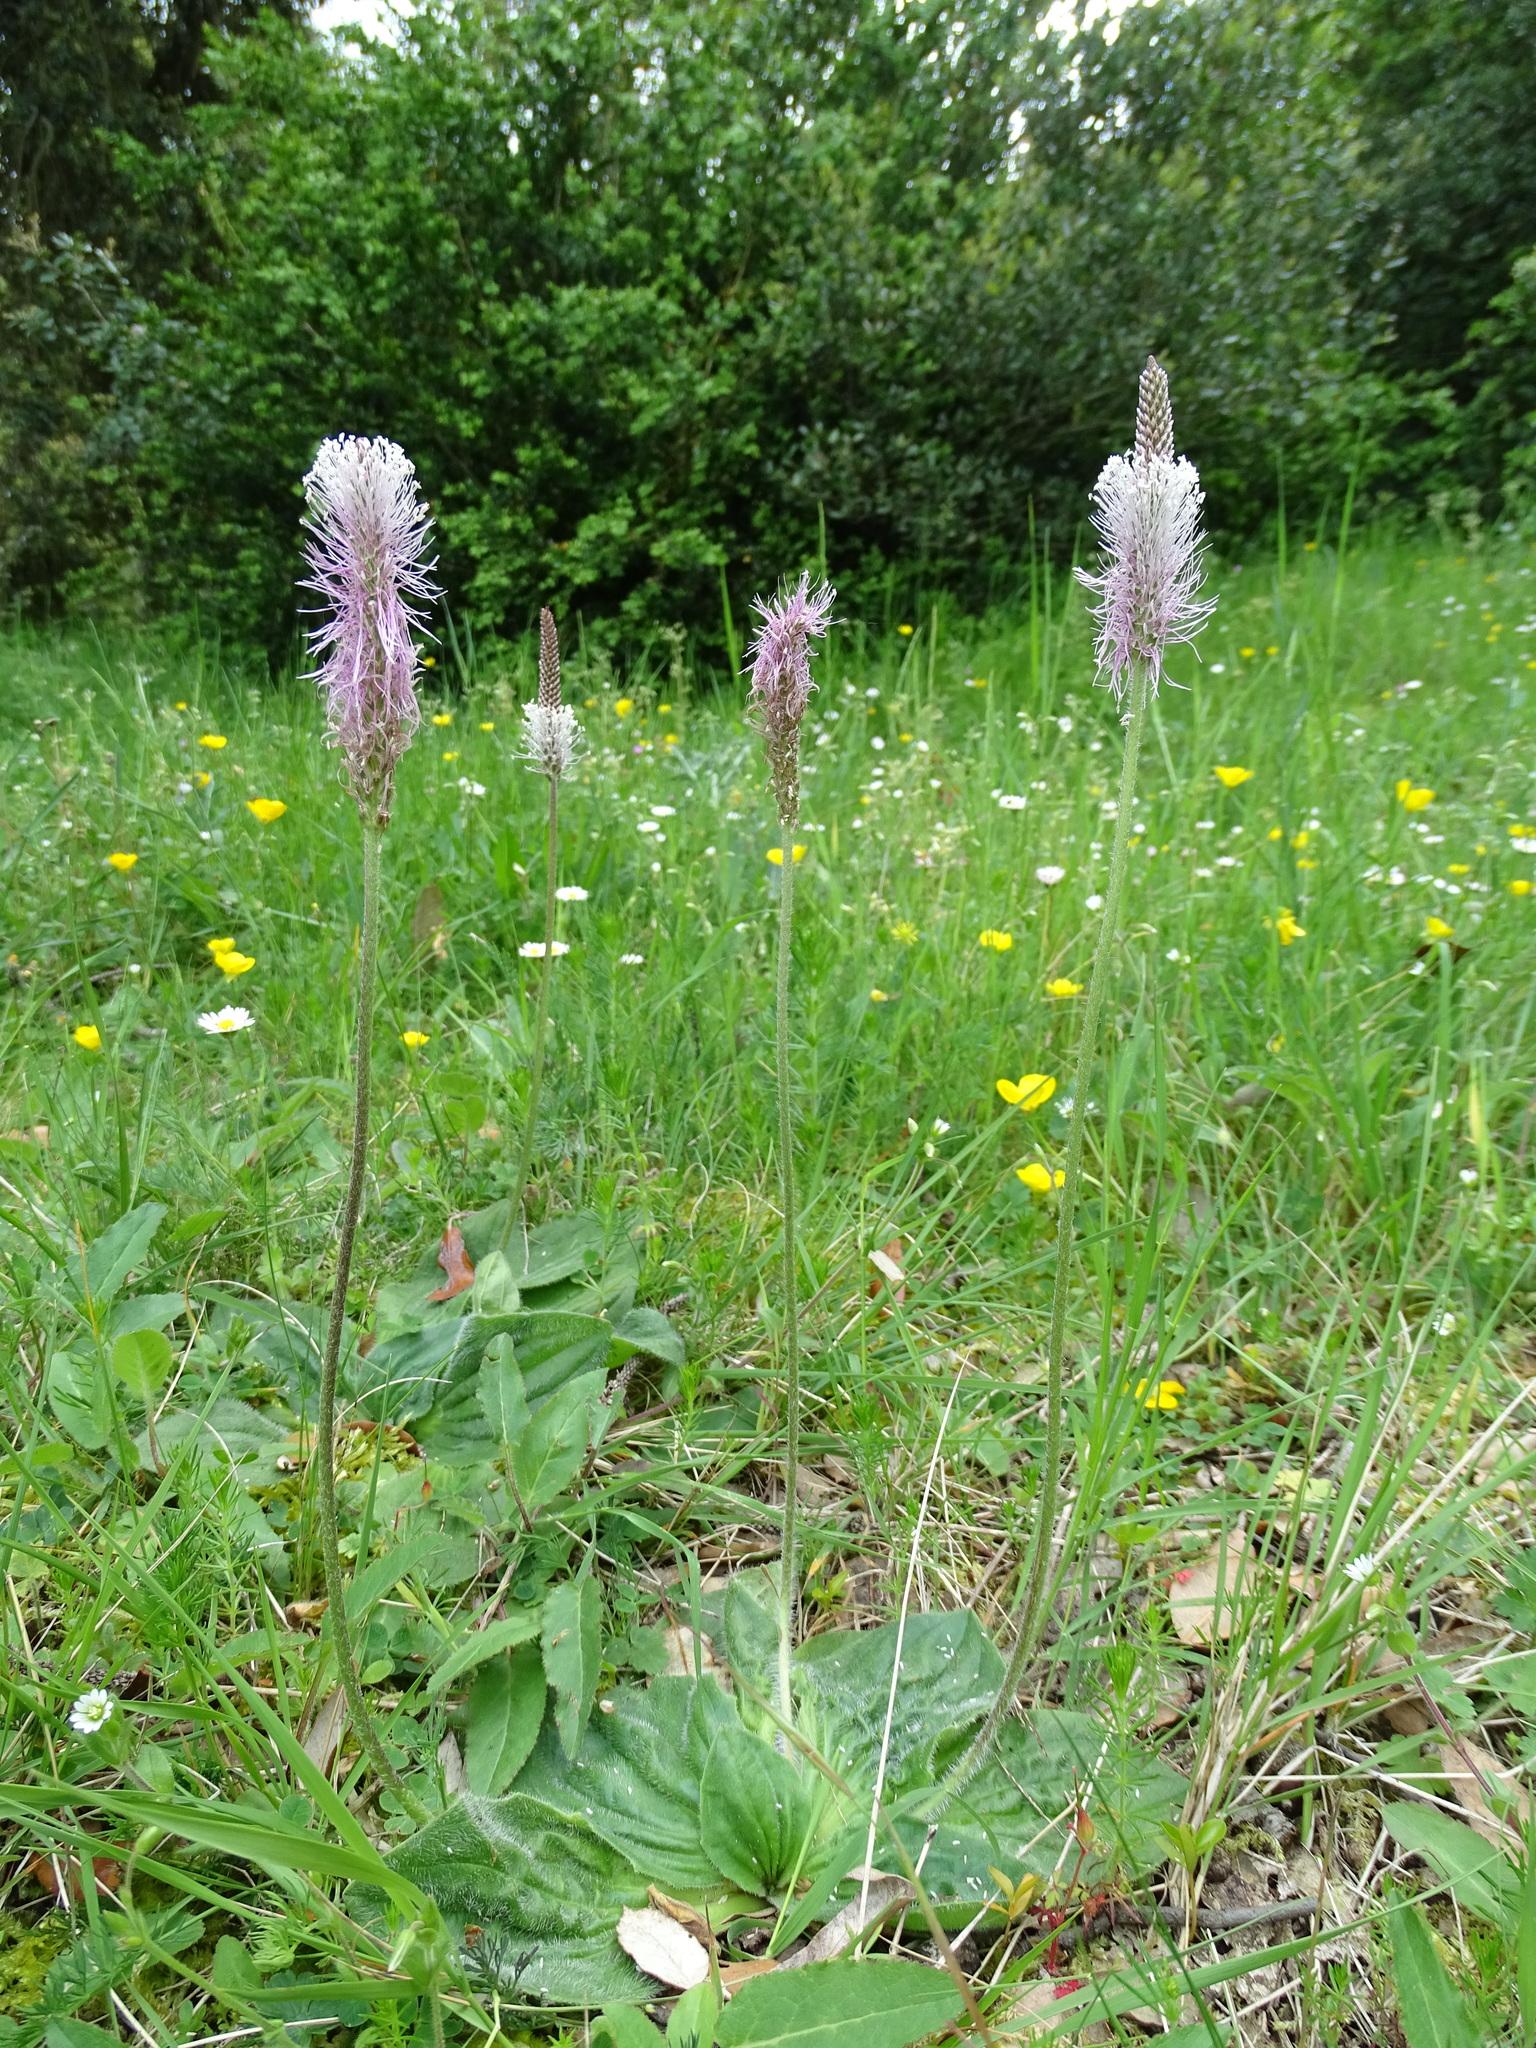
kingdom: Plantae
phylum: Tracheophyta
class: Magnoliopsida
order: Lamiales
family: Plantaginaceae
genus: Plantago
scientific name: Plantago media
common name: Hoary plantain
